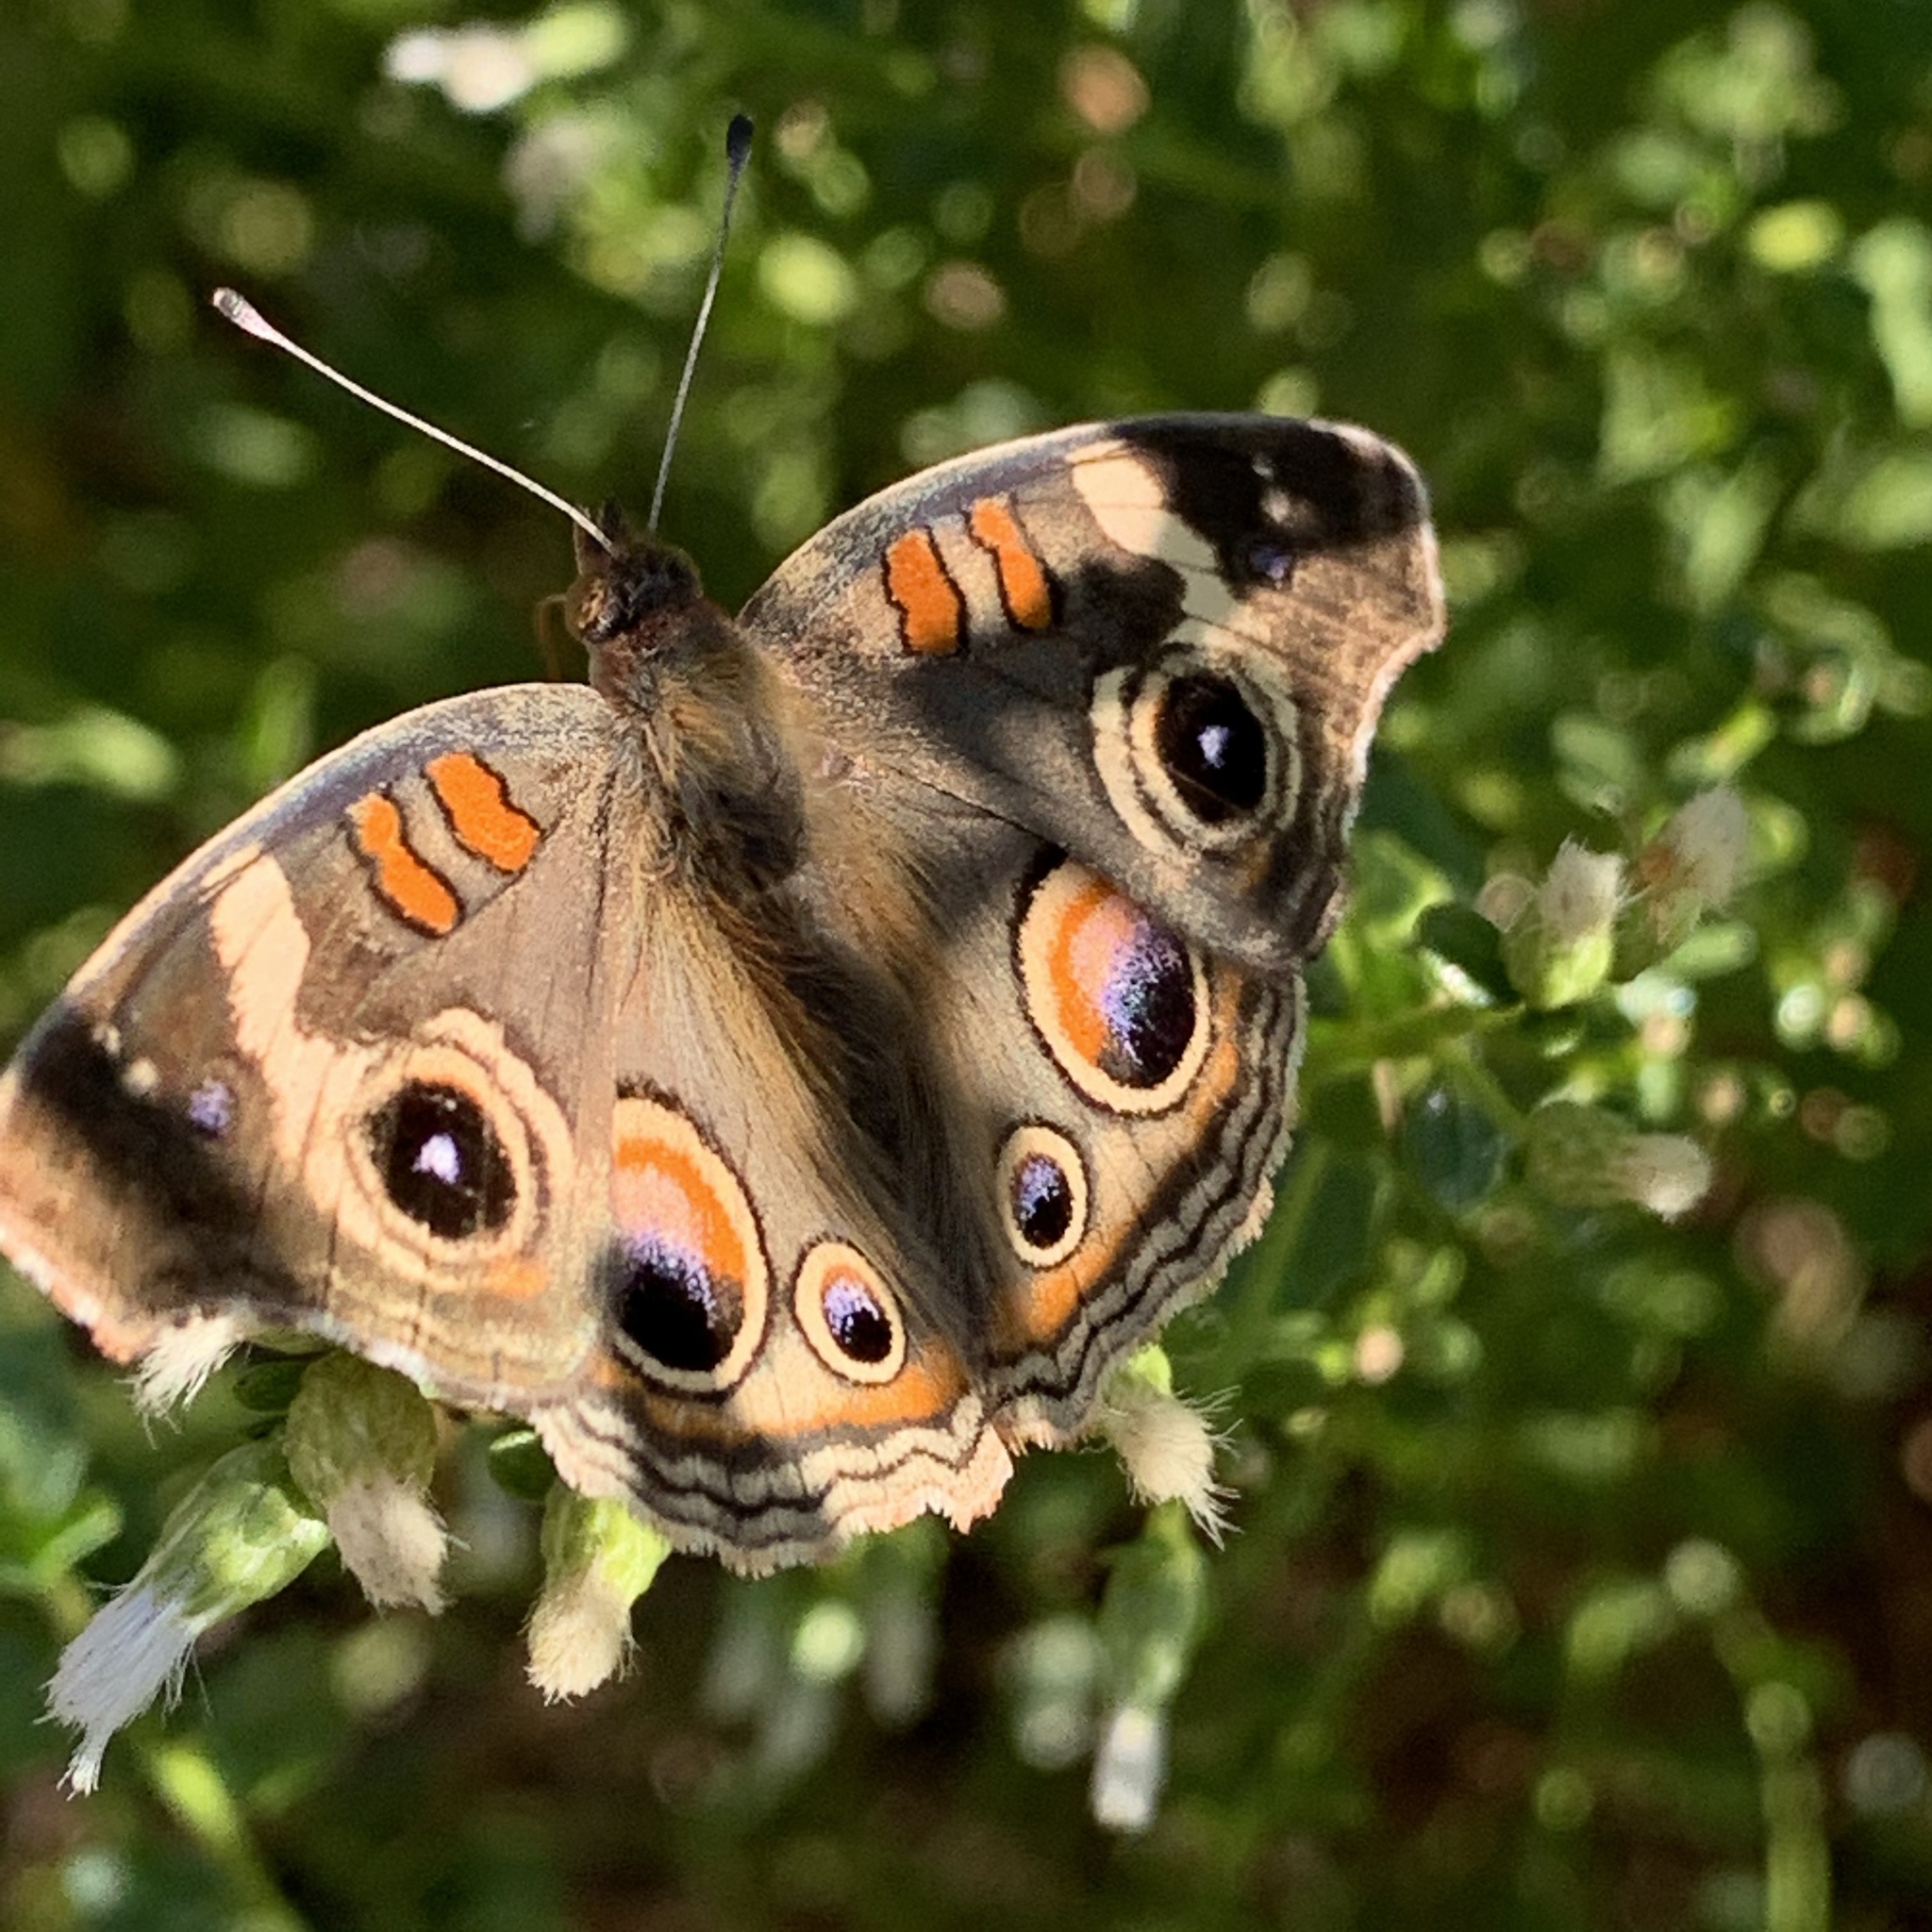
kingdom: Animalia
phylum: Arthropoda
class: Insecta
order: Lepidoptera
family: Nymphalidae
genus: Junonia
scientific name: Junonia grisea
